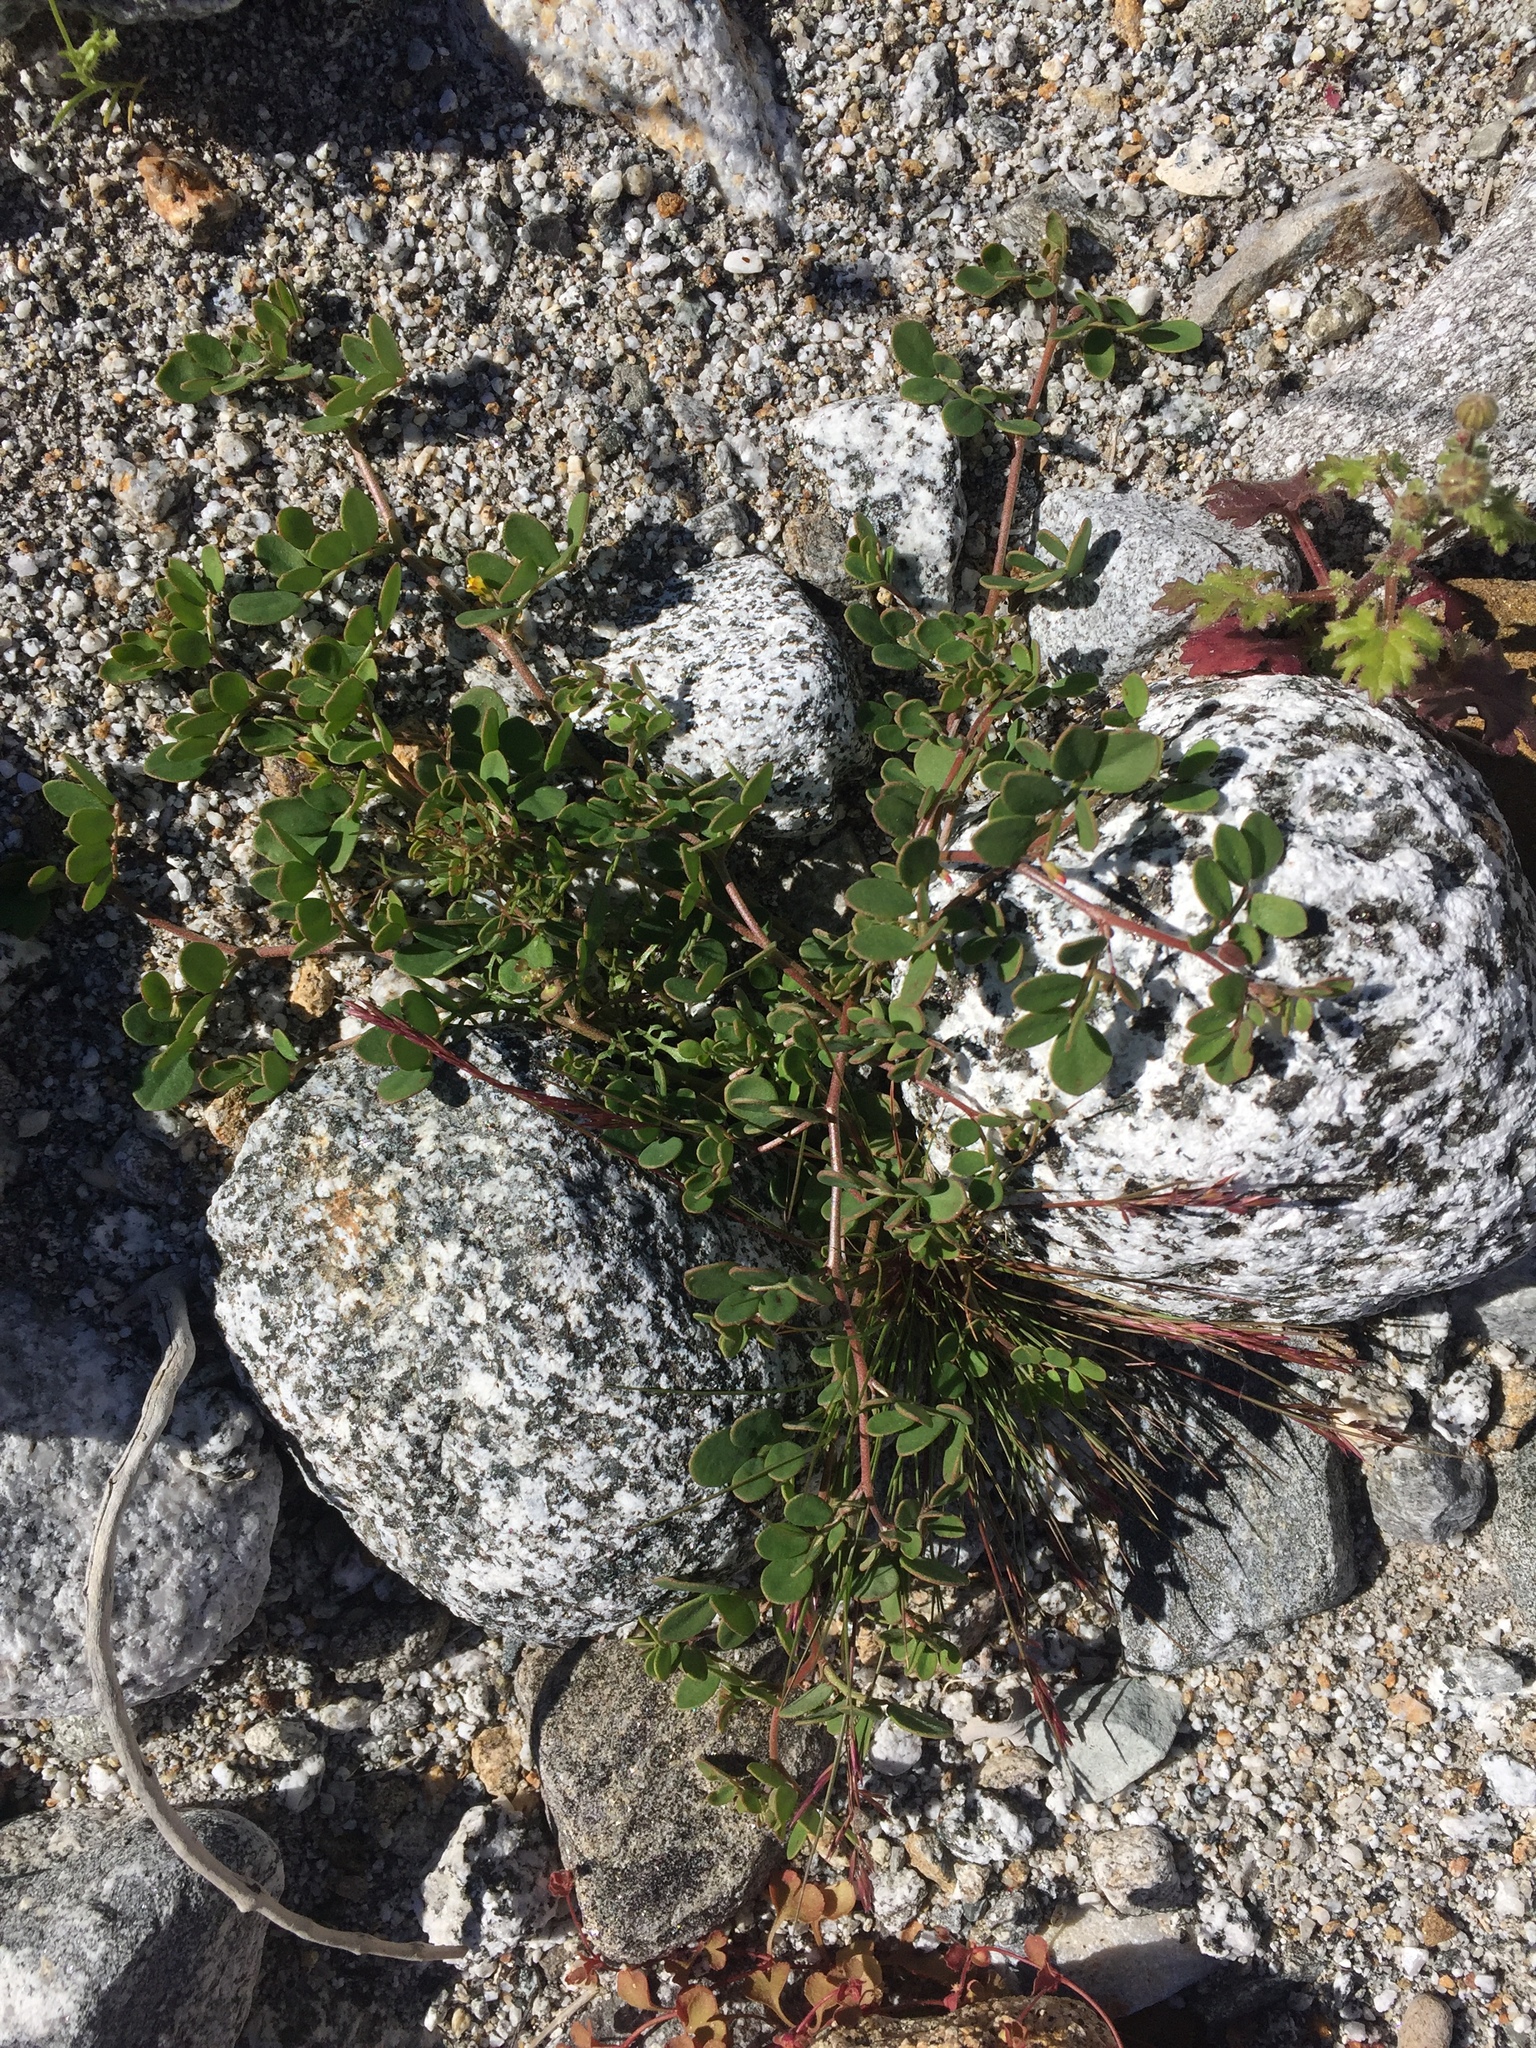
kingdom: Plantae
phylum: Tracheophyta
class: Magnoliopsida
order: Fabales
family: Fabaceae
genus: Acmispon
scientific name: Acmispon maritimus
